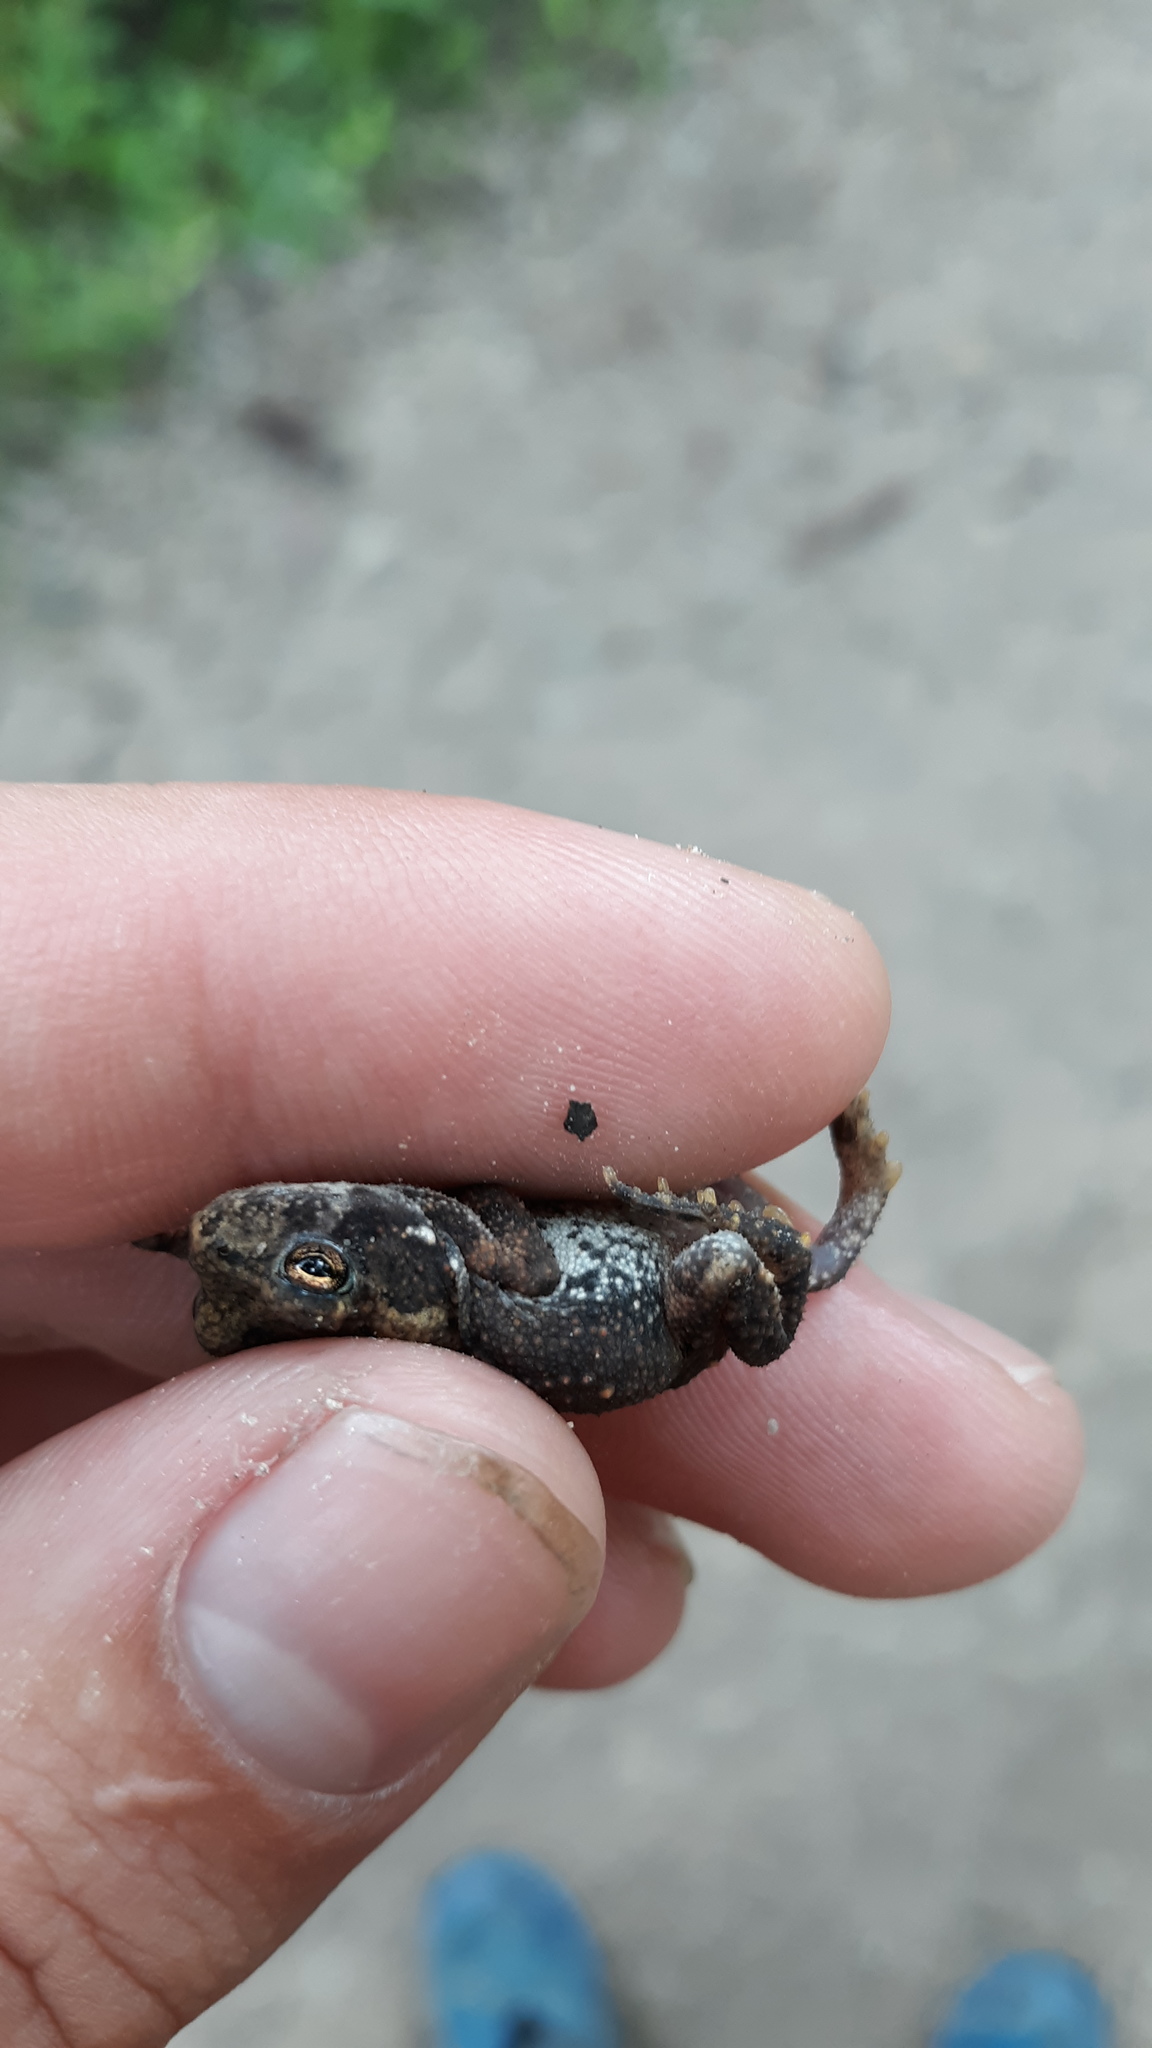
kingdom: Animalia
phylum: Chordata
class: Amphibia
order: Anura
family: Bufonidae
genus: Anaxyrus
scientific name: Anaxyrus americanus
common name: American toad
